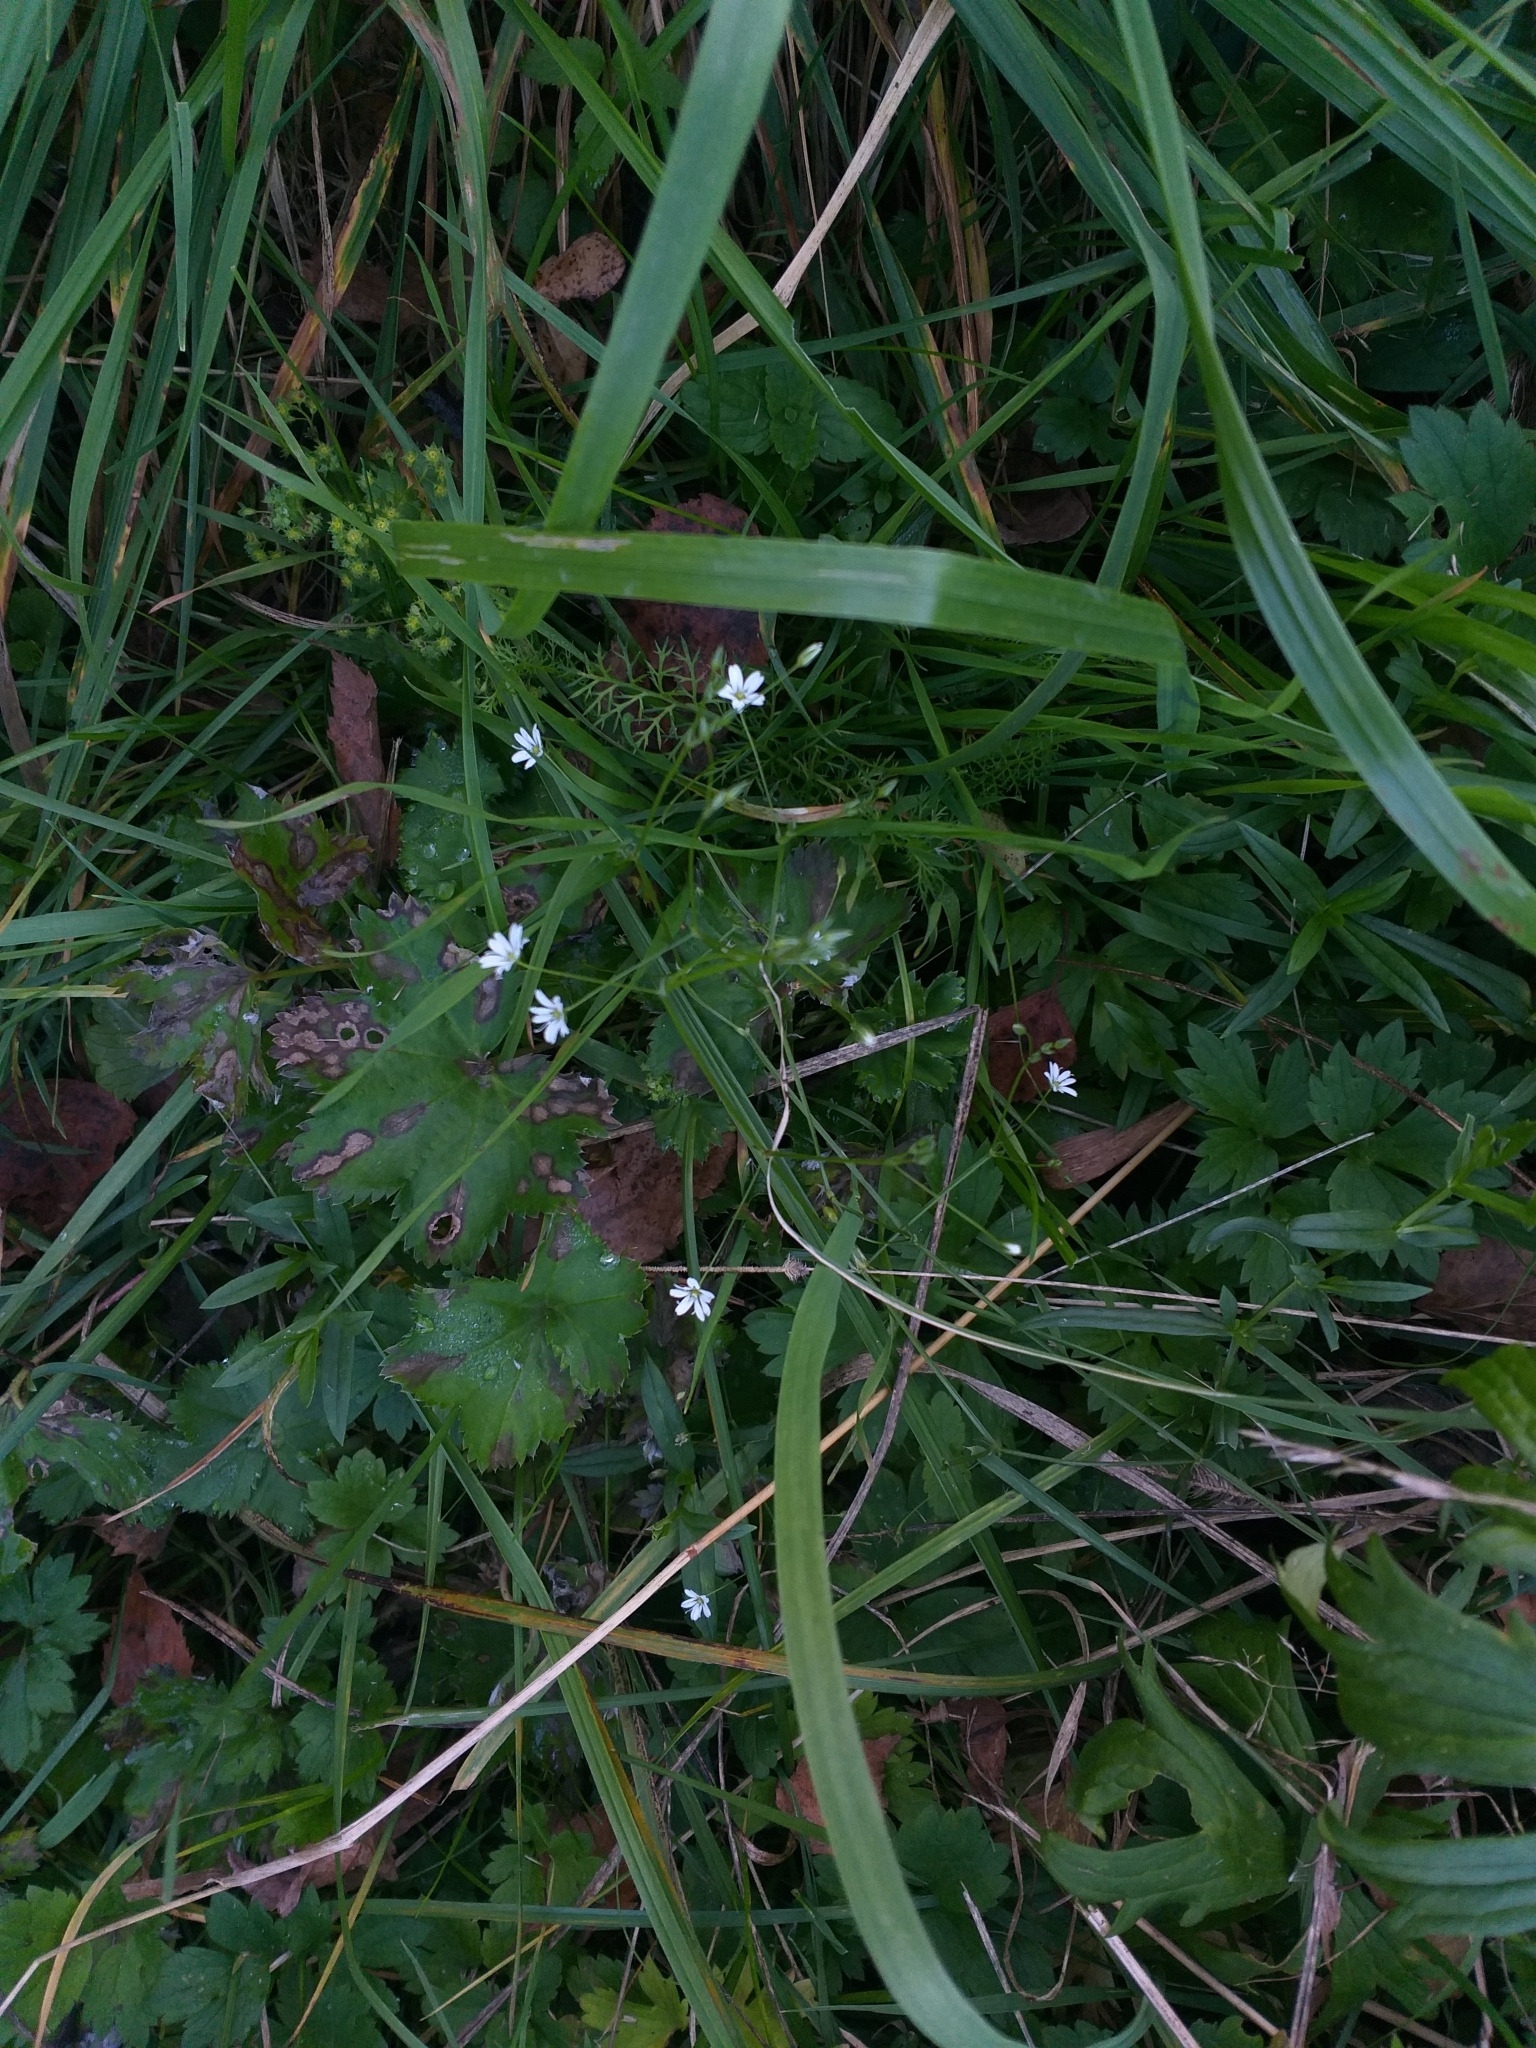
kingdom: Plantae
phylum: Tracheophyta
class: Magnoliopsida
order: Caryophyllales
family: Caryophyllaceae
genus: Stellaria
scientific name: Stellaria graminea
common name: Grass-like starwort
